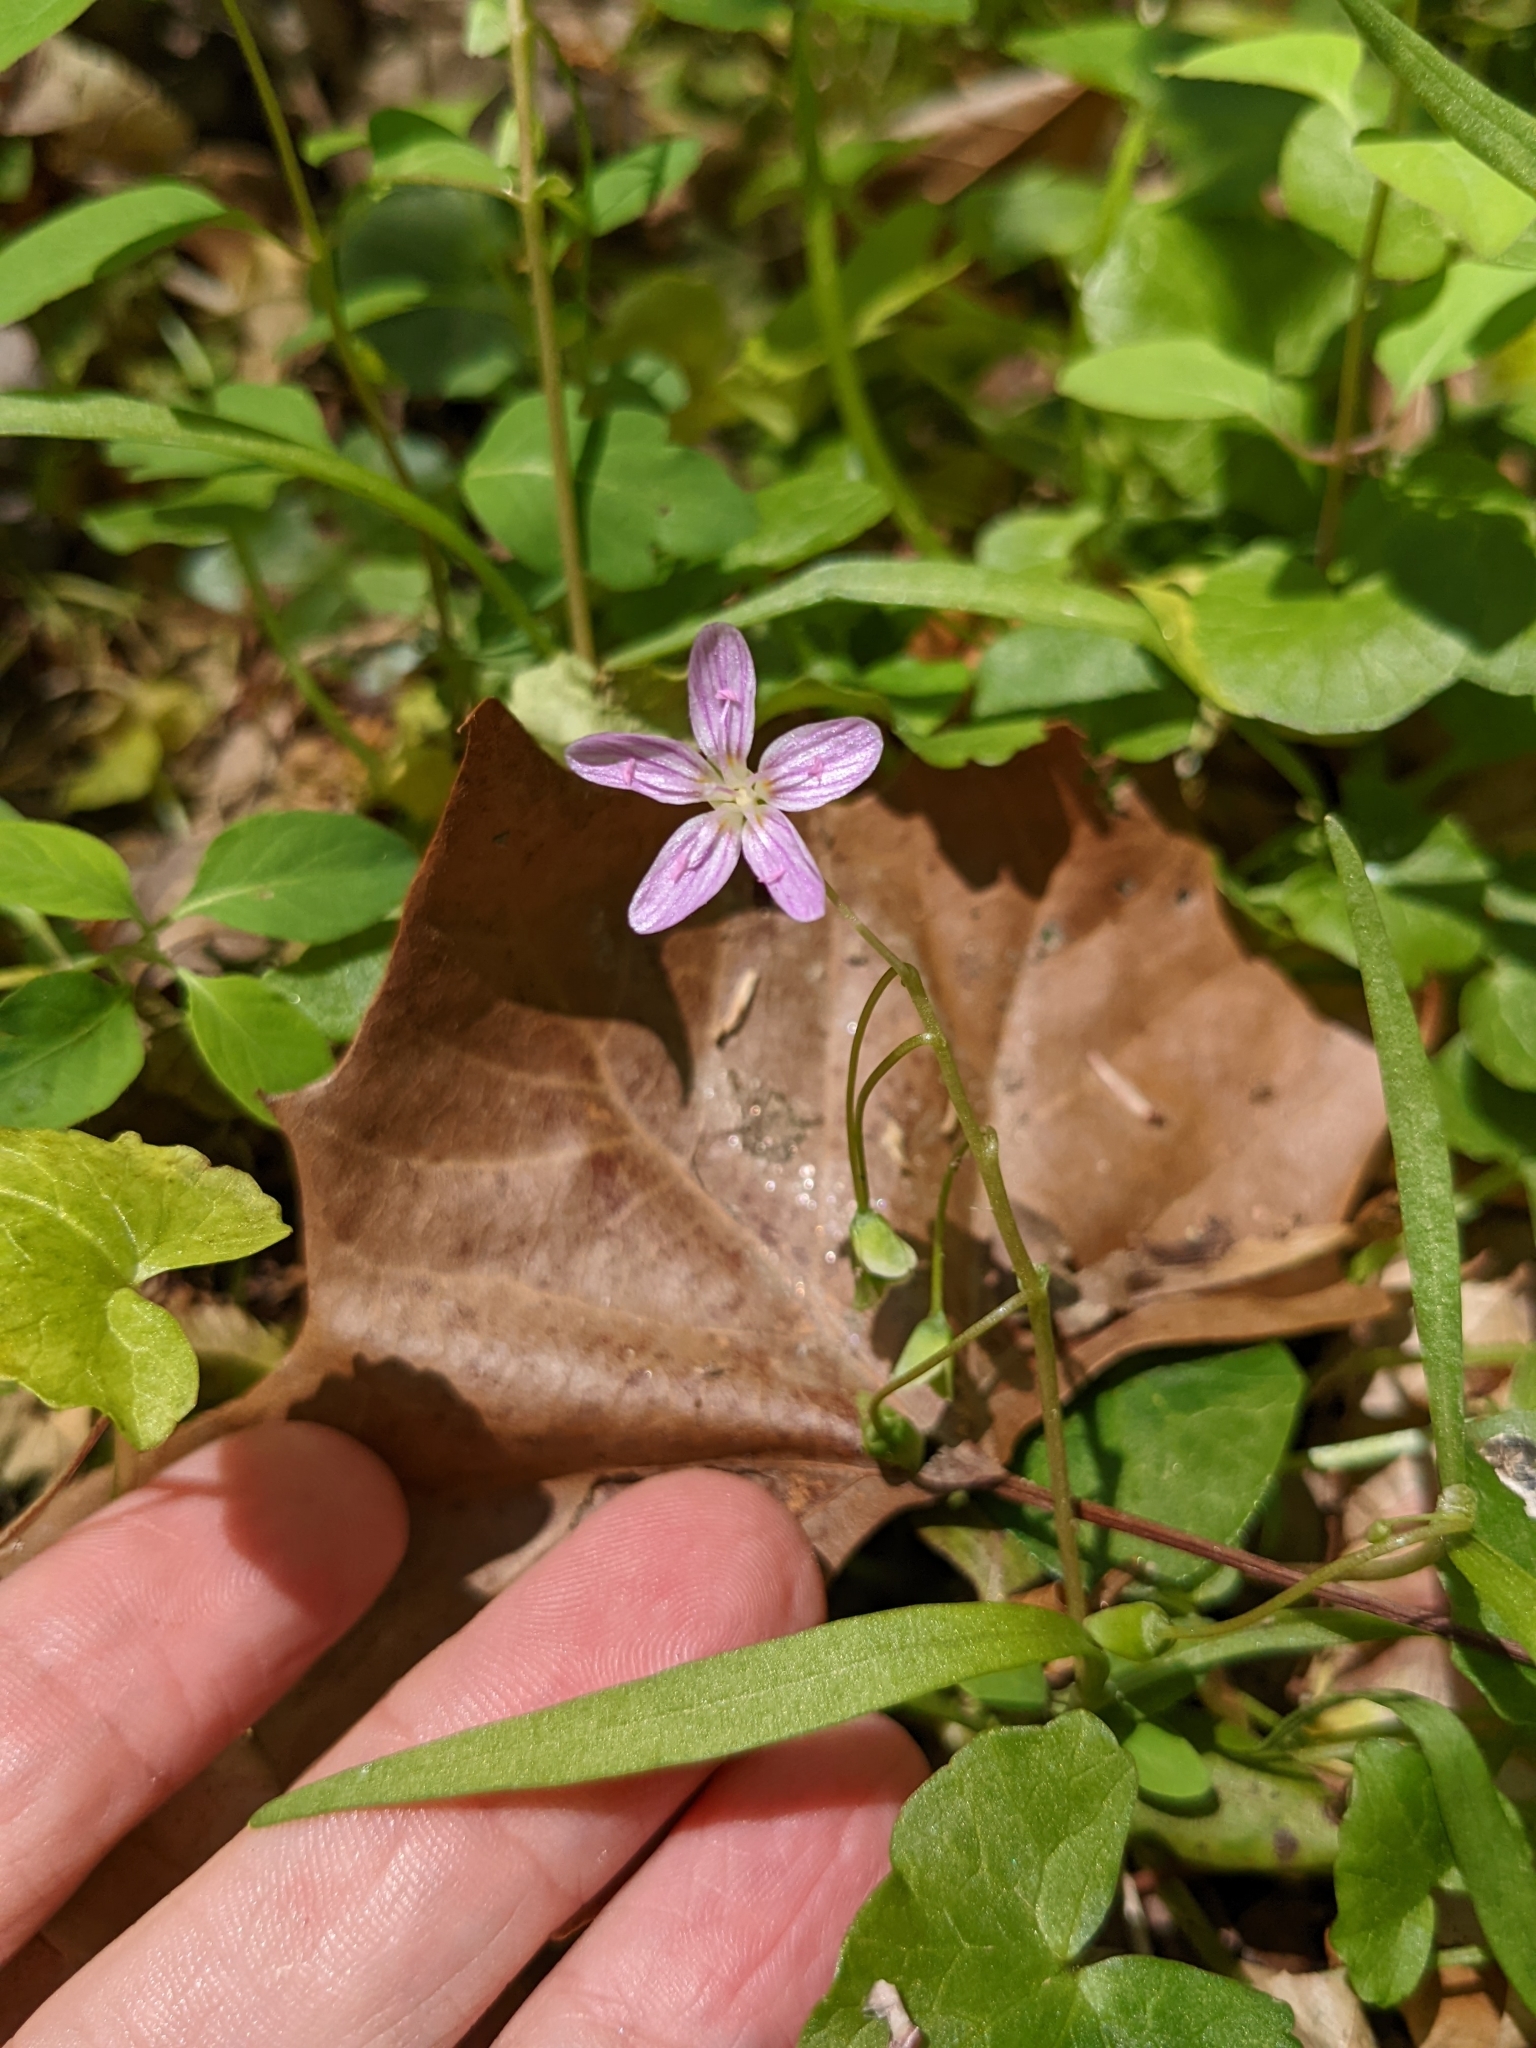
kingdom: Plantae
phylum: Tracheophyta
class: Magnoliopsida
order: Caryophyllales
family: Montiaceae
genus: Claytonia
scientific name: Claytonia virginica
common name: Virginia springbeauty
